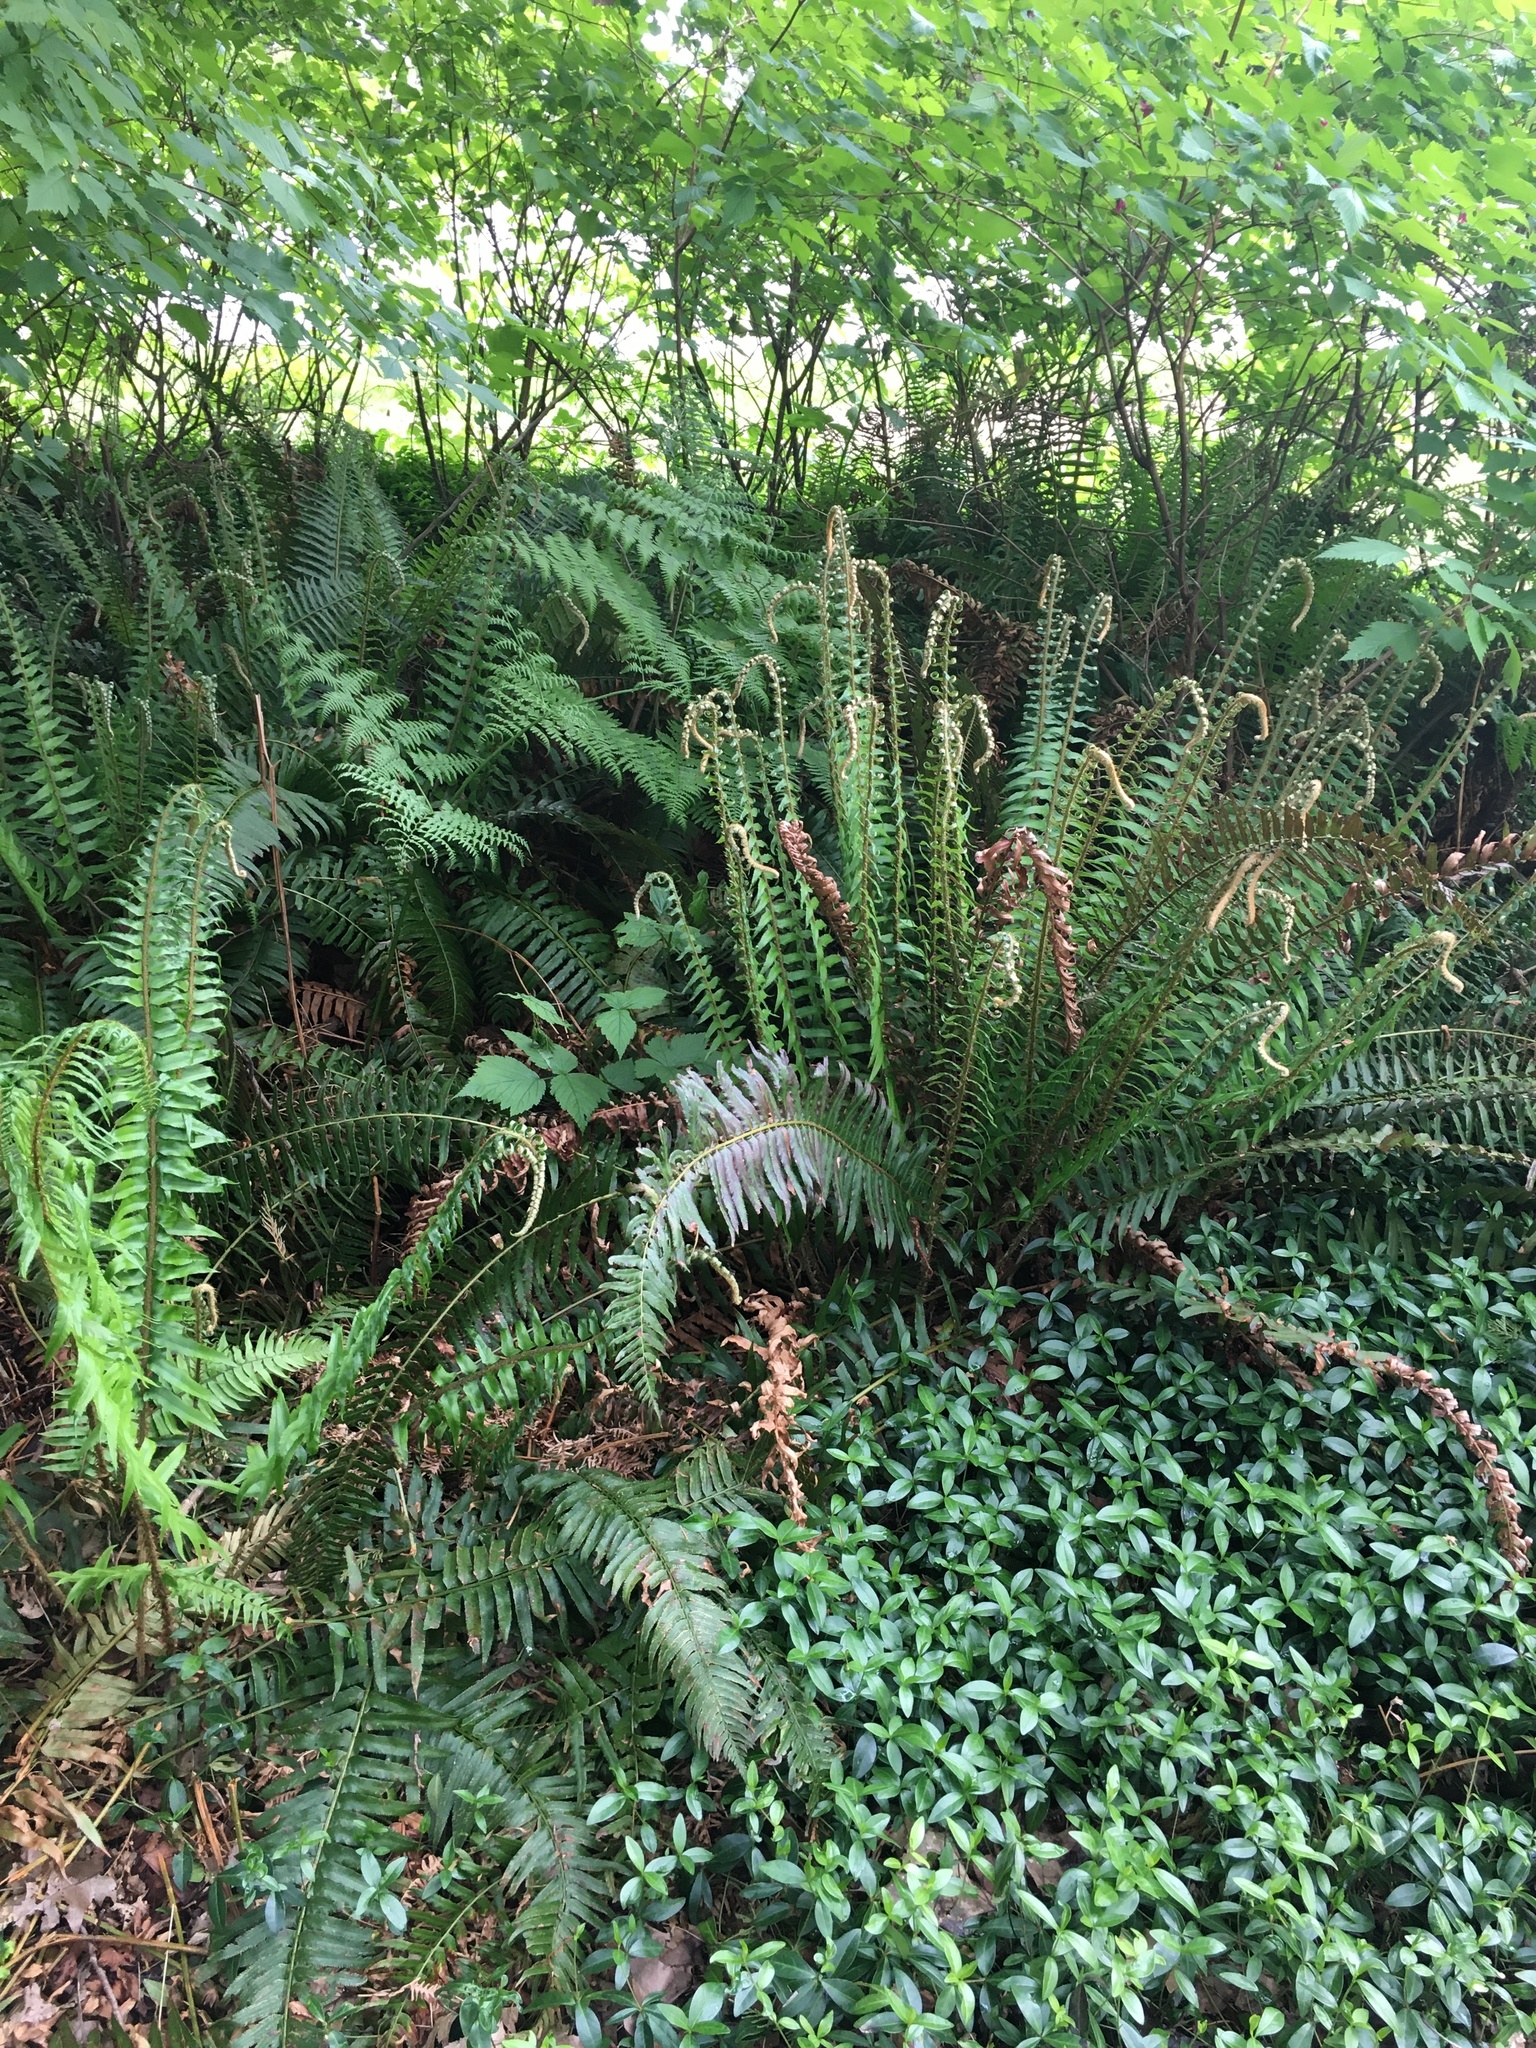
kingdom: Plantae
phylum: Tracheophyta
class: Polypodiopsida
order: Polypodiales
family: Dryopteridaceae
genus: Polystichum
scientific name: Polystichum munitum
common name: Western sword-fern
